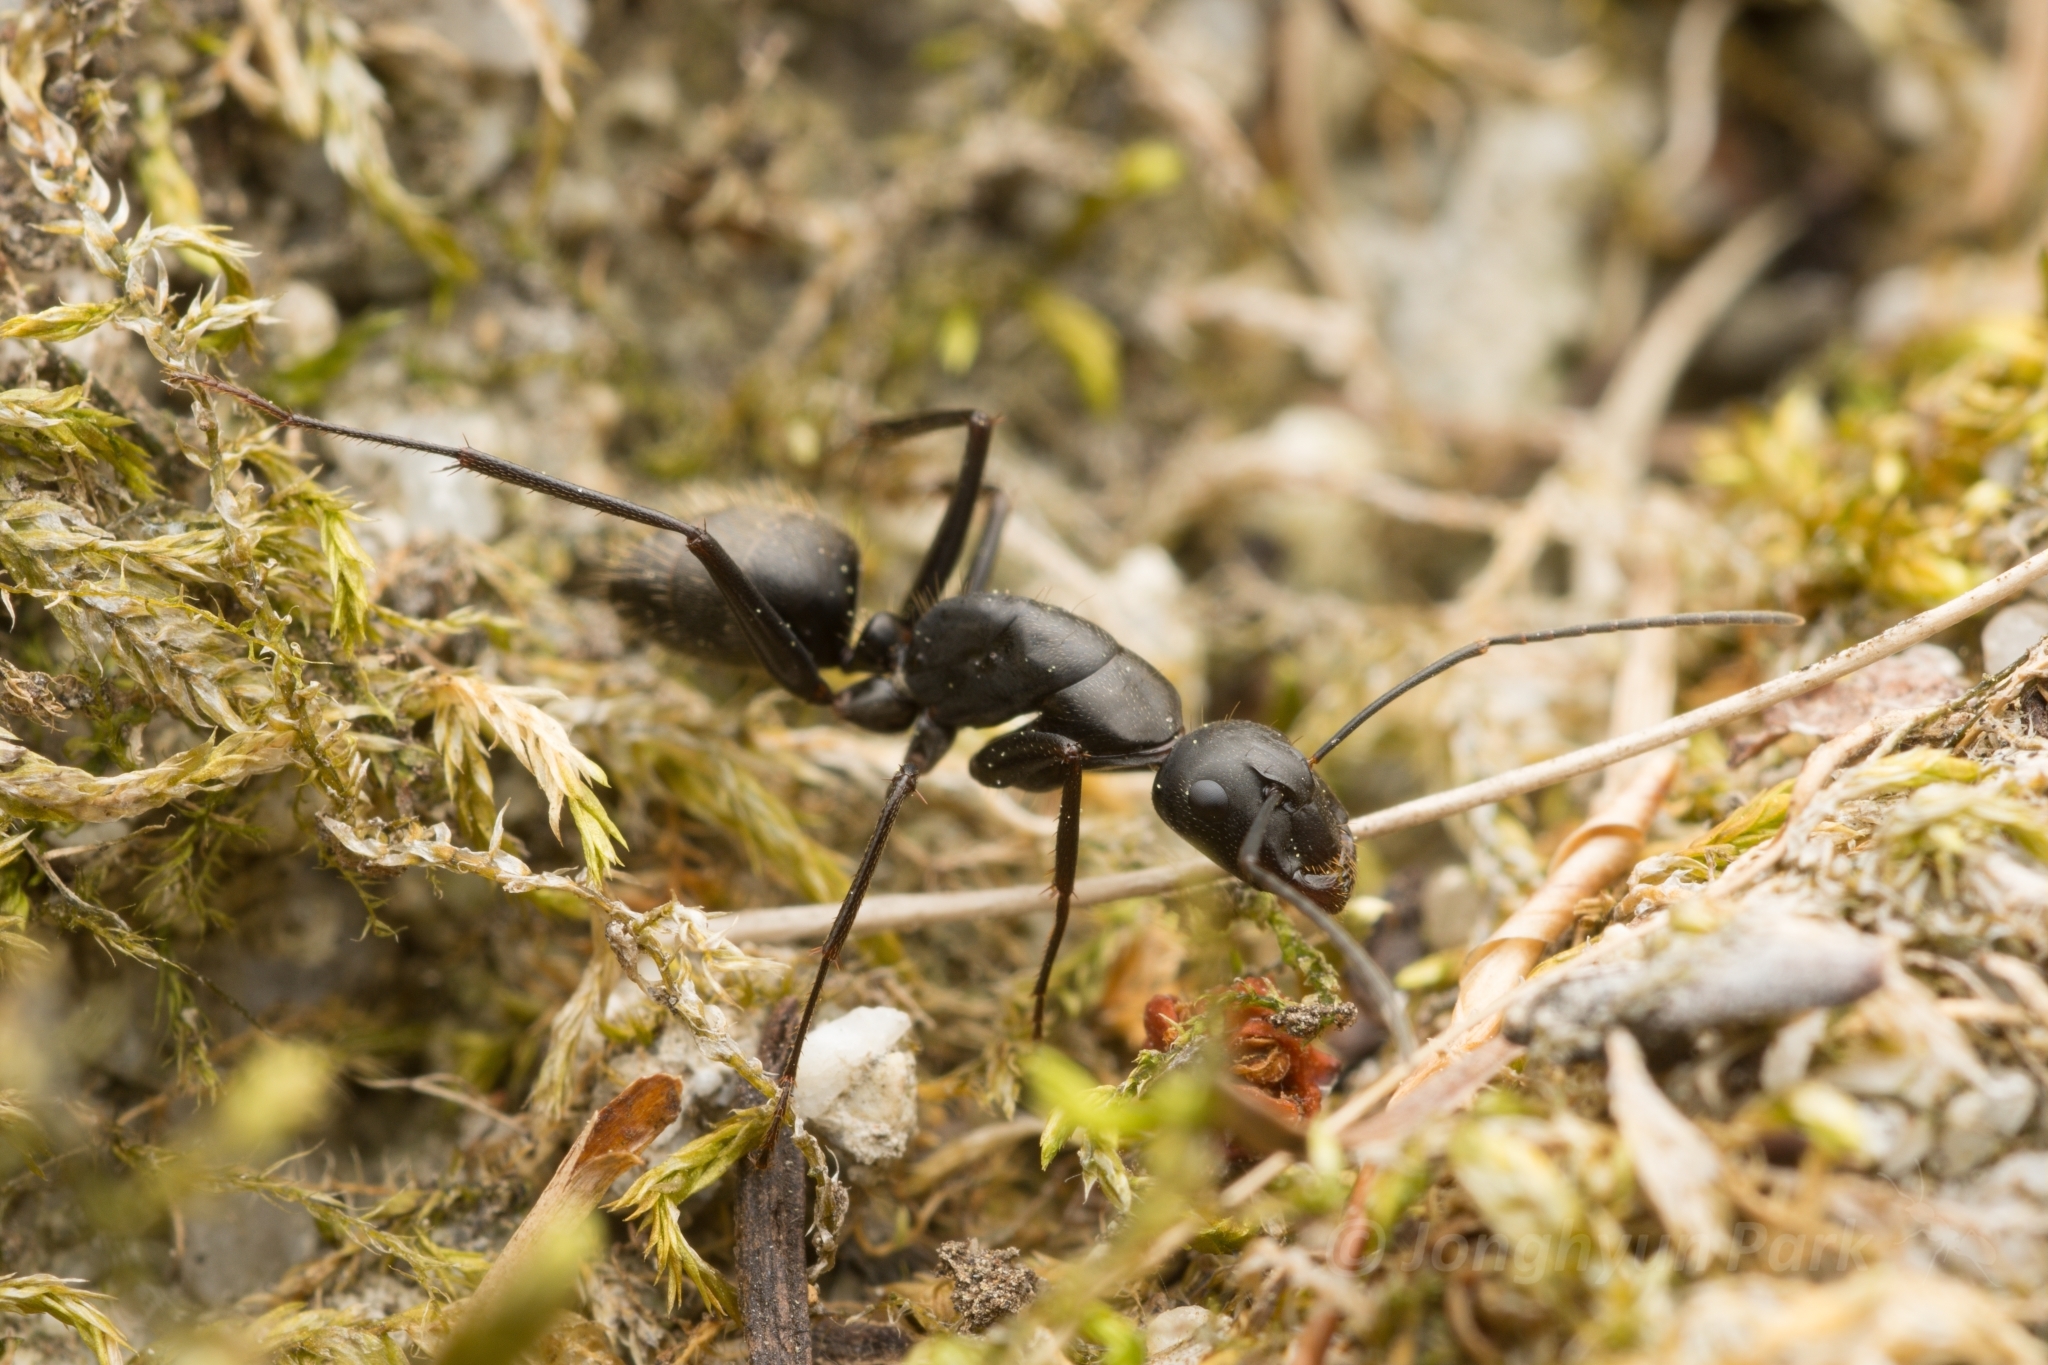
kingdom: Animalia
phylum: Arthropoda
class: Insecta
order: Hymenoptera
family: Formicidae
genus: Camponotus
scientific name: Camponotus japonicus
